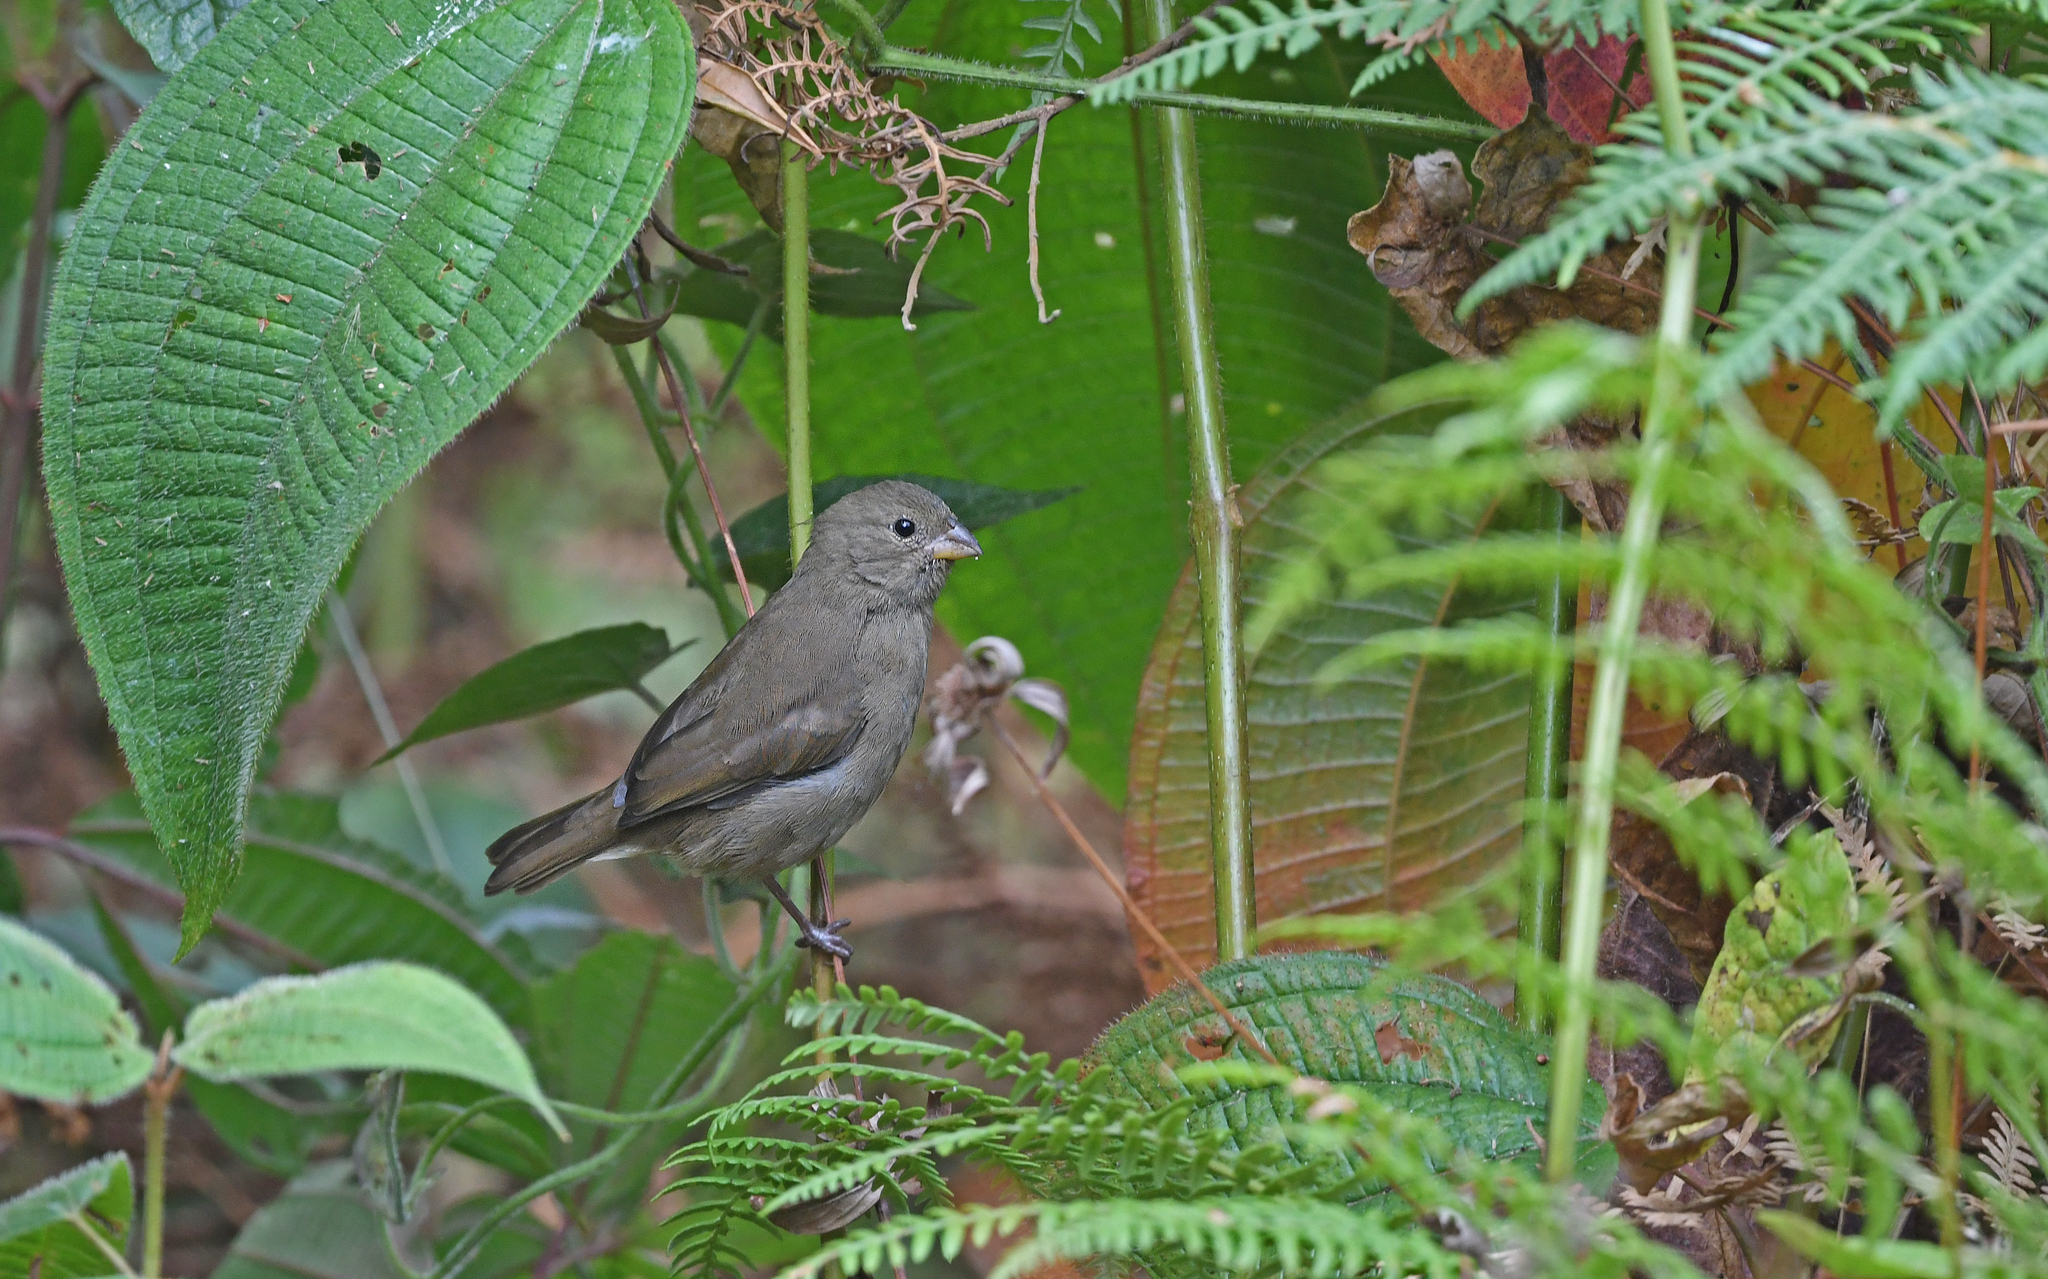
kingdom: Animalia
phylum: Chordata
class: Aves
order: Passeriformes
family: Thraupidae
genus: Asemospiza
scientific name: Asemospiza obscura
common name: Dull-colored grassquit
